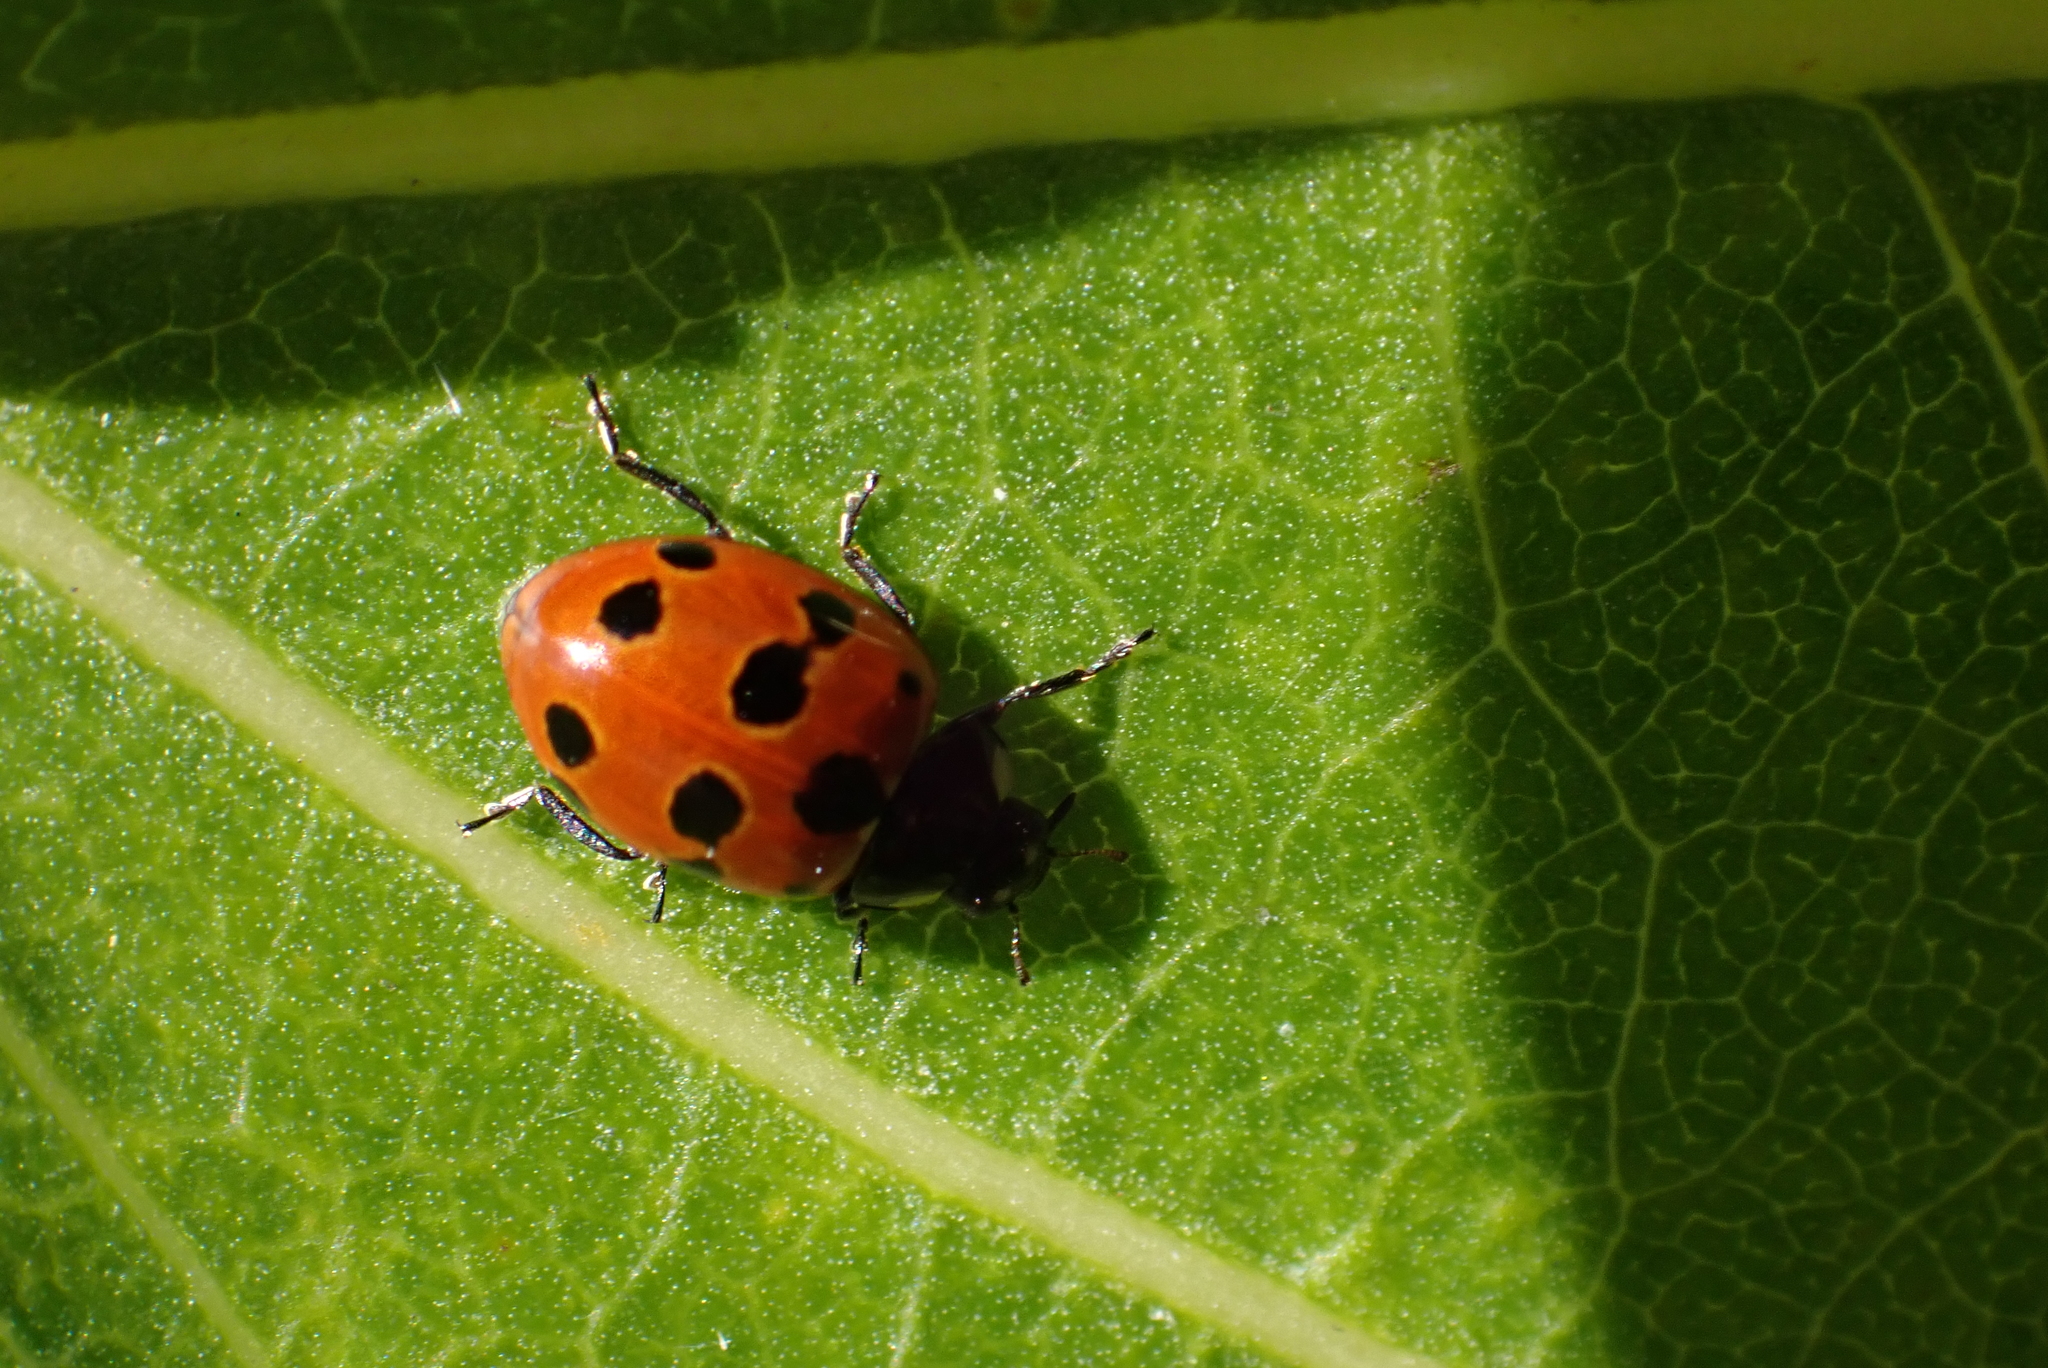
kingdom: Animalia
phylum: Arthropoda
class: Insecta
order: Coleoptera
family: Coccinellidae
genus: Coccinella
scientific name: Coccinella undecimpunctata
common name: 11-spot ladybird
